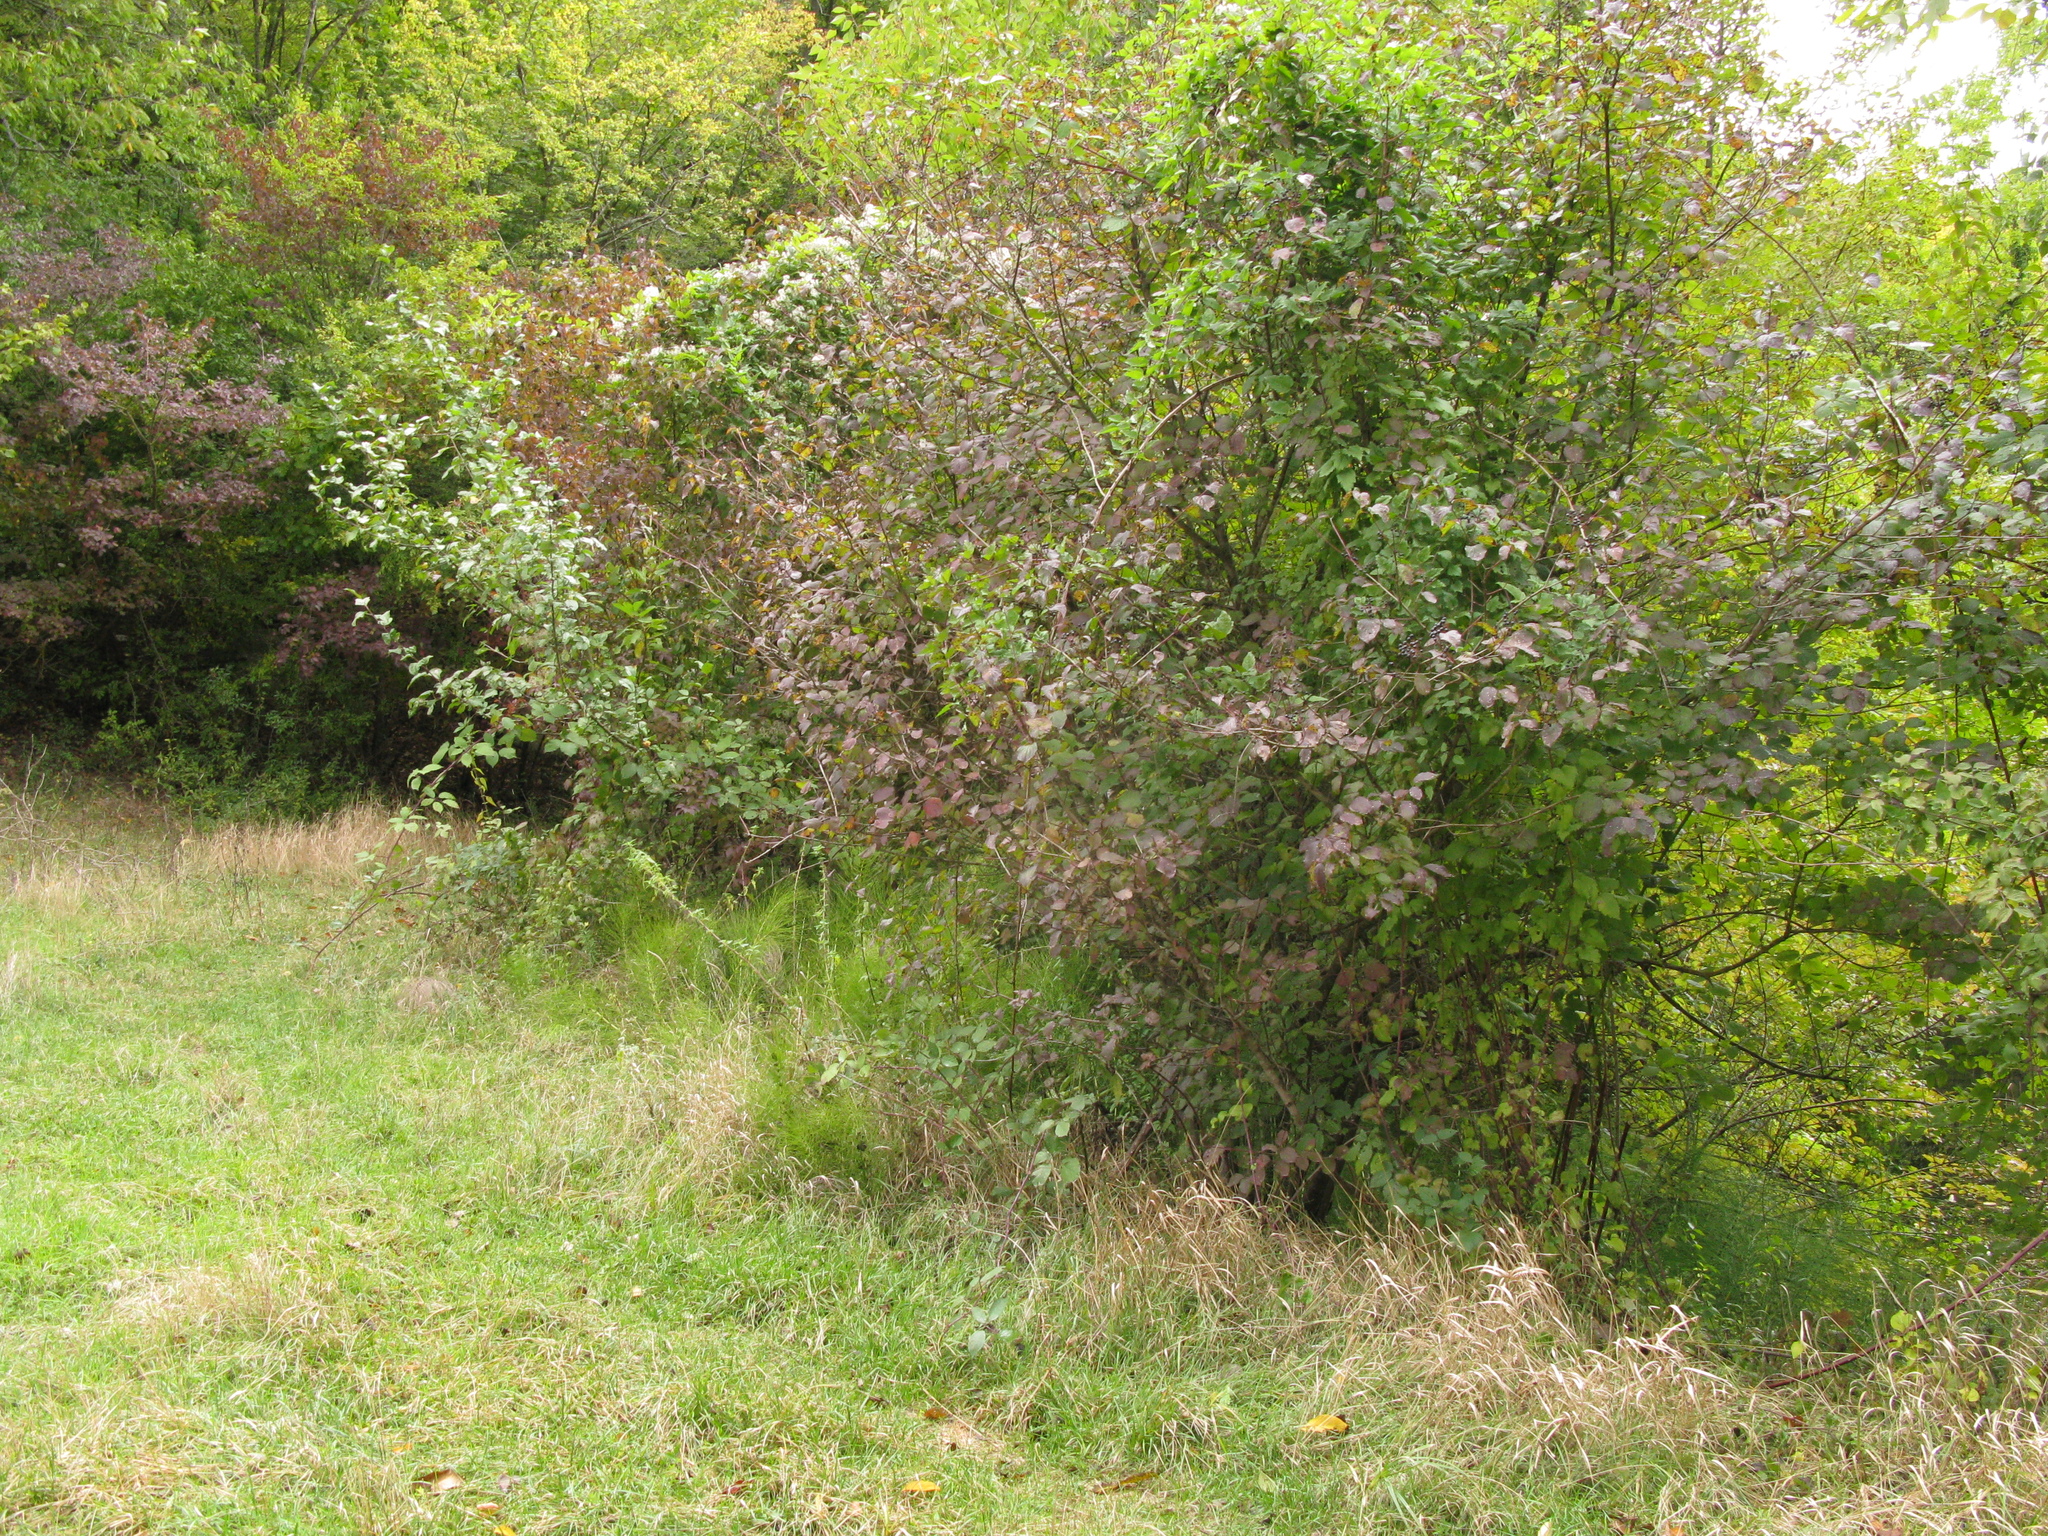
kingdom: Plantae
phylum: Tracheophyta
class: Magnoliopsida
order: Cornales
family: Cornaceae
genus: Cornus
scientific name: Cornus sanguinea
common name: Dogwood
